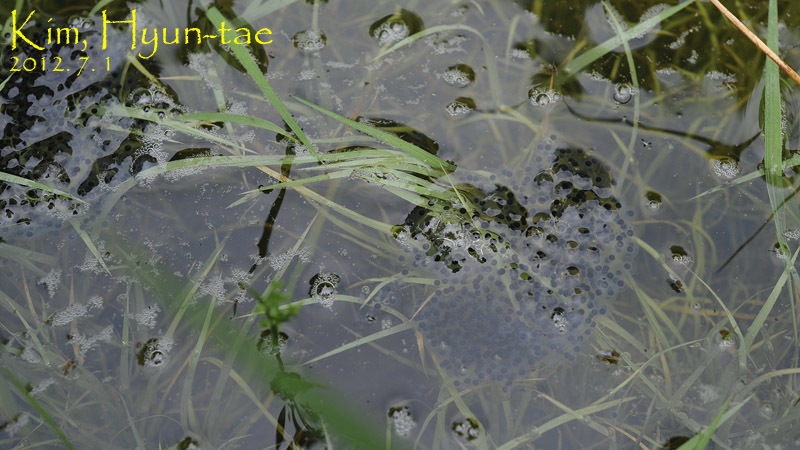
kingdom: Animalia
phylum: Chordata
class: Amphibia
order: Anura
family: Ranidae
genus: Pelophylax
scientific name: Pelophylax nigromaculatus
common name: Black-spotted pond frog
